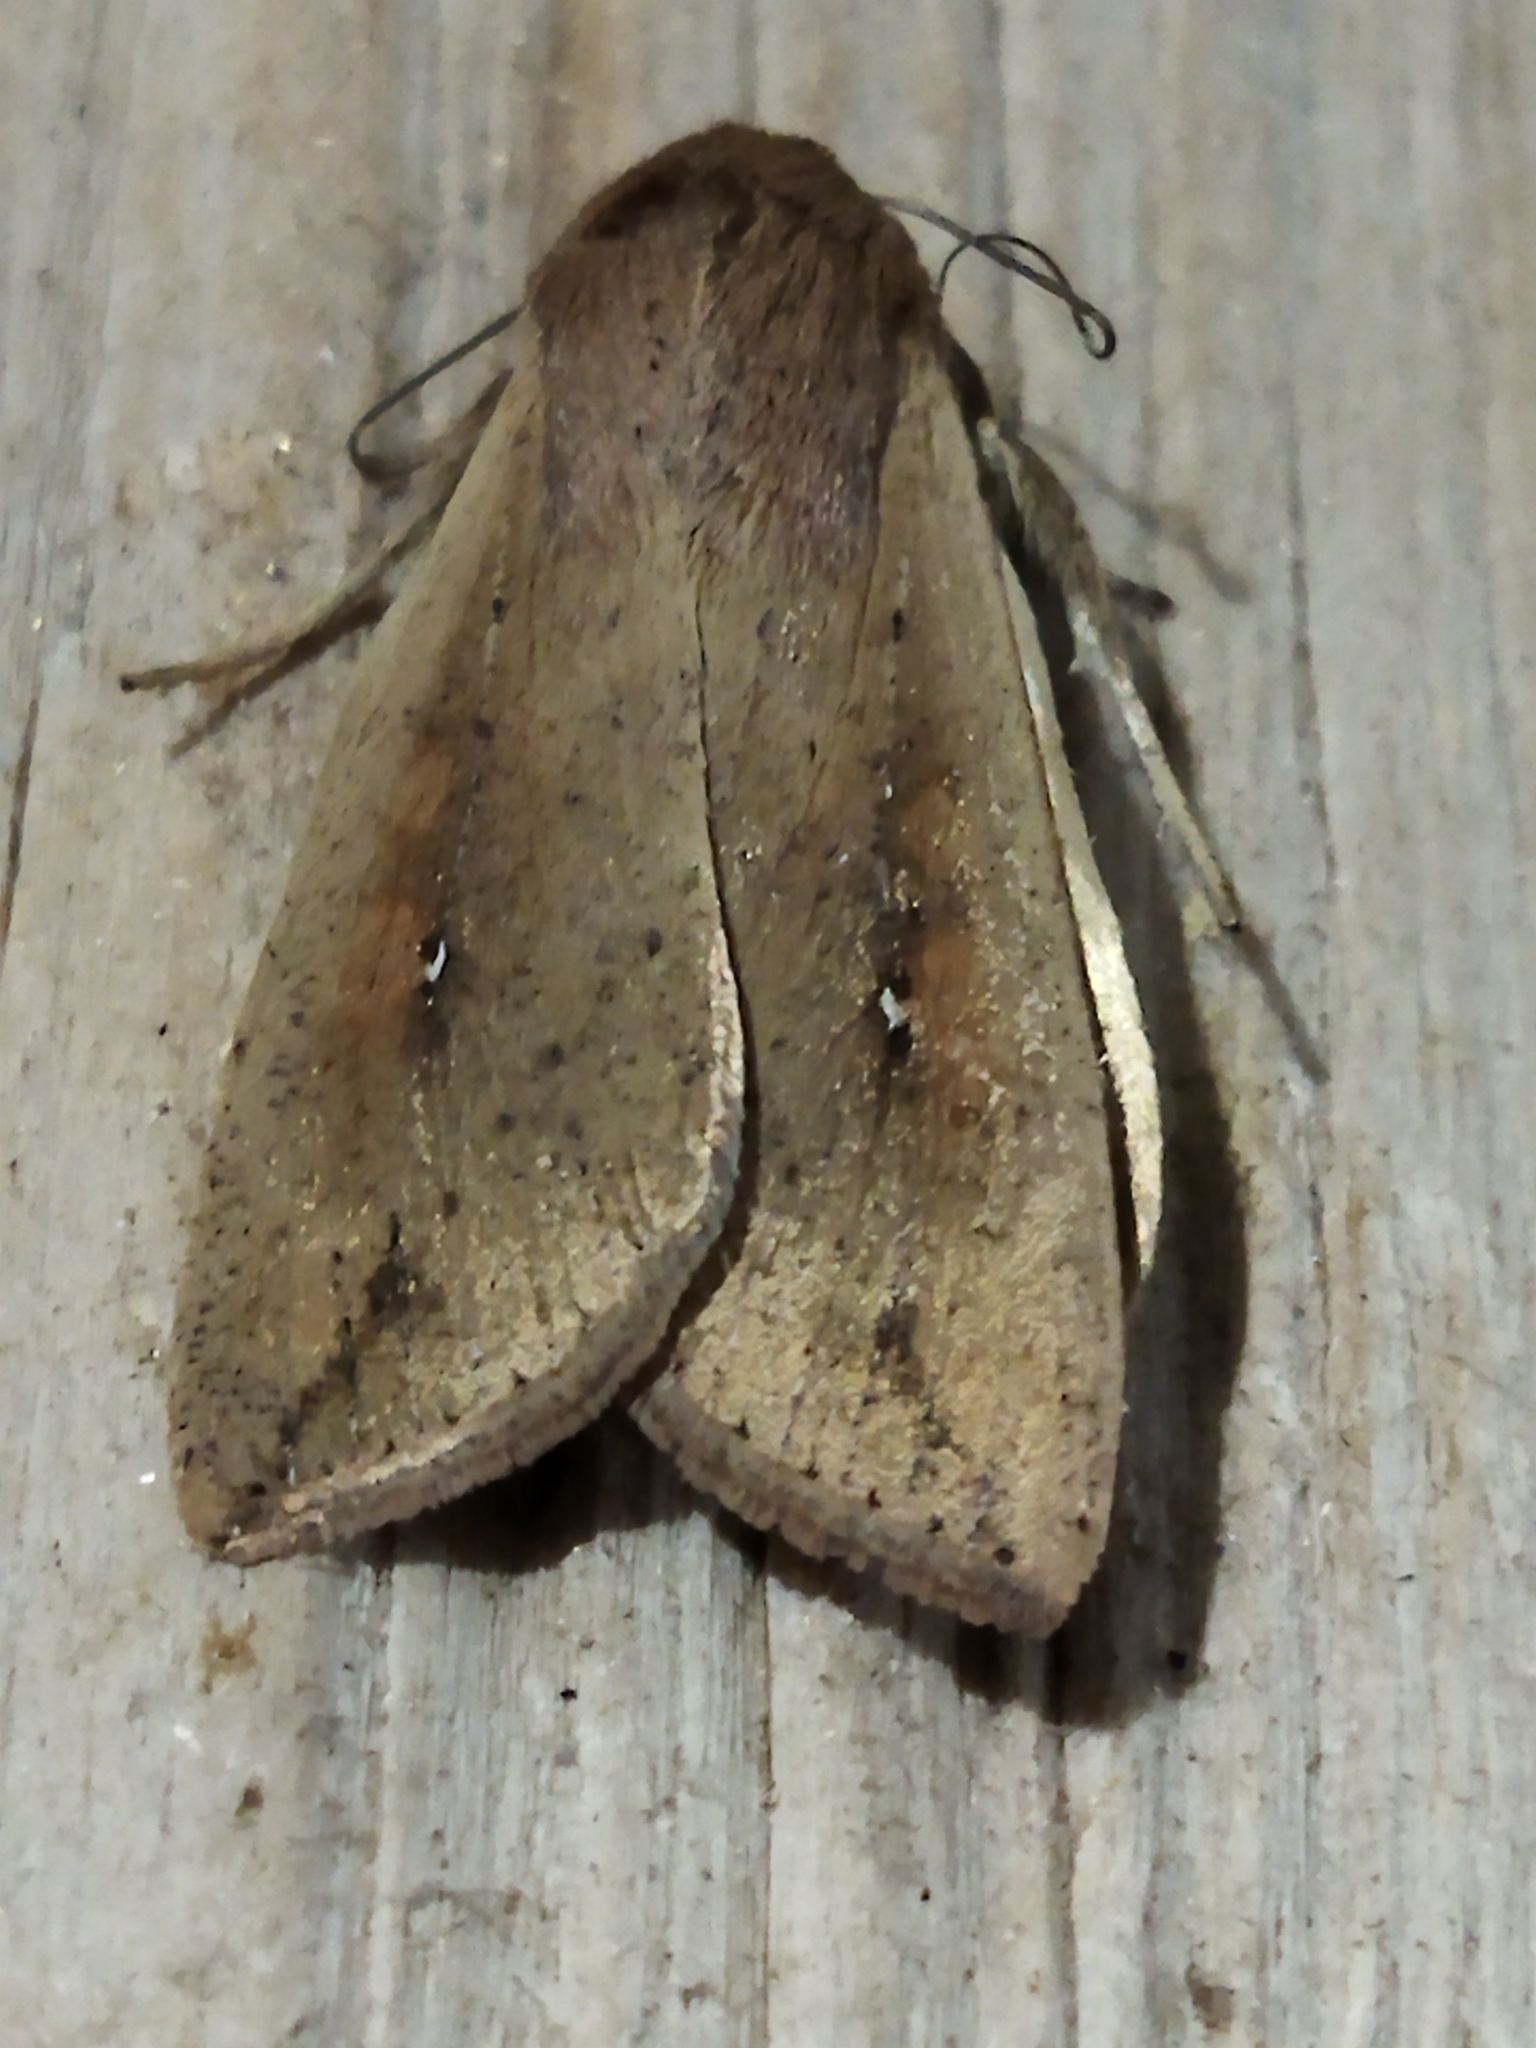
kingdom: Animalia
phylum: Arthropoda
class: Insecta
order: Lepidoptera
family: Noctuidae
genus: Mythimna
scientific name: Mythimna unipuncta
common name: White-speck
